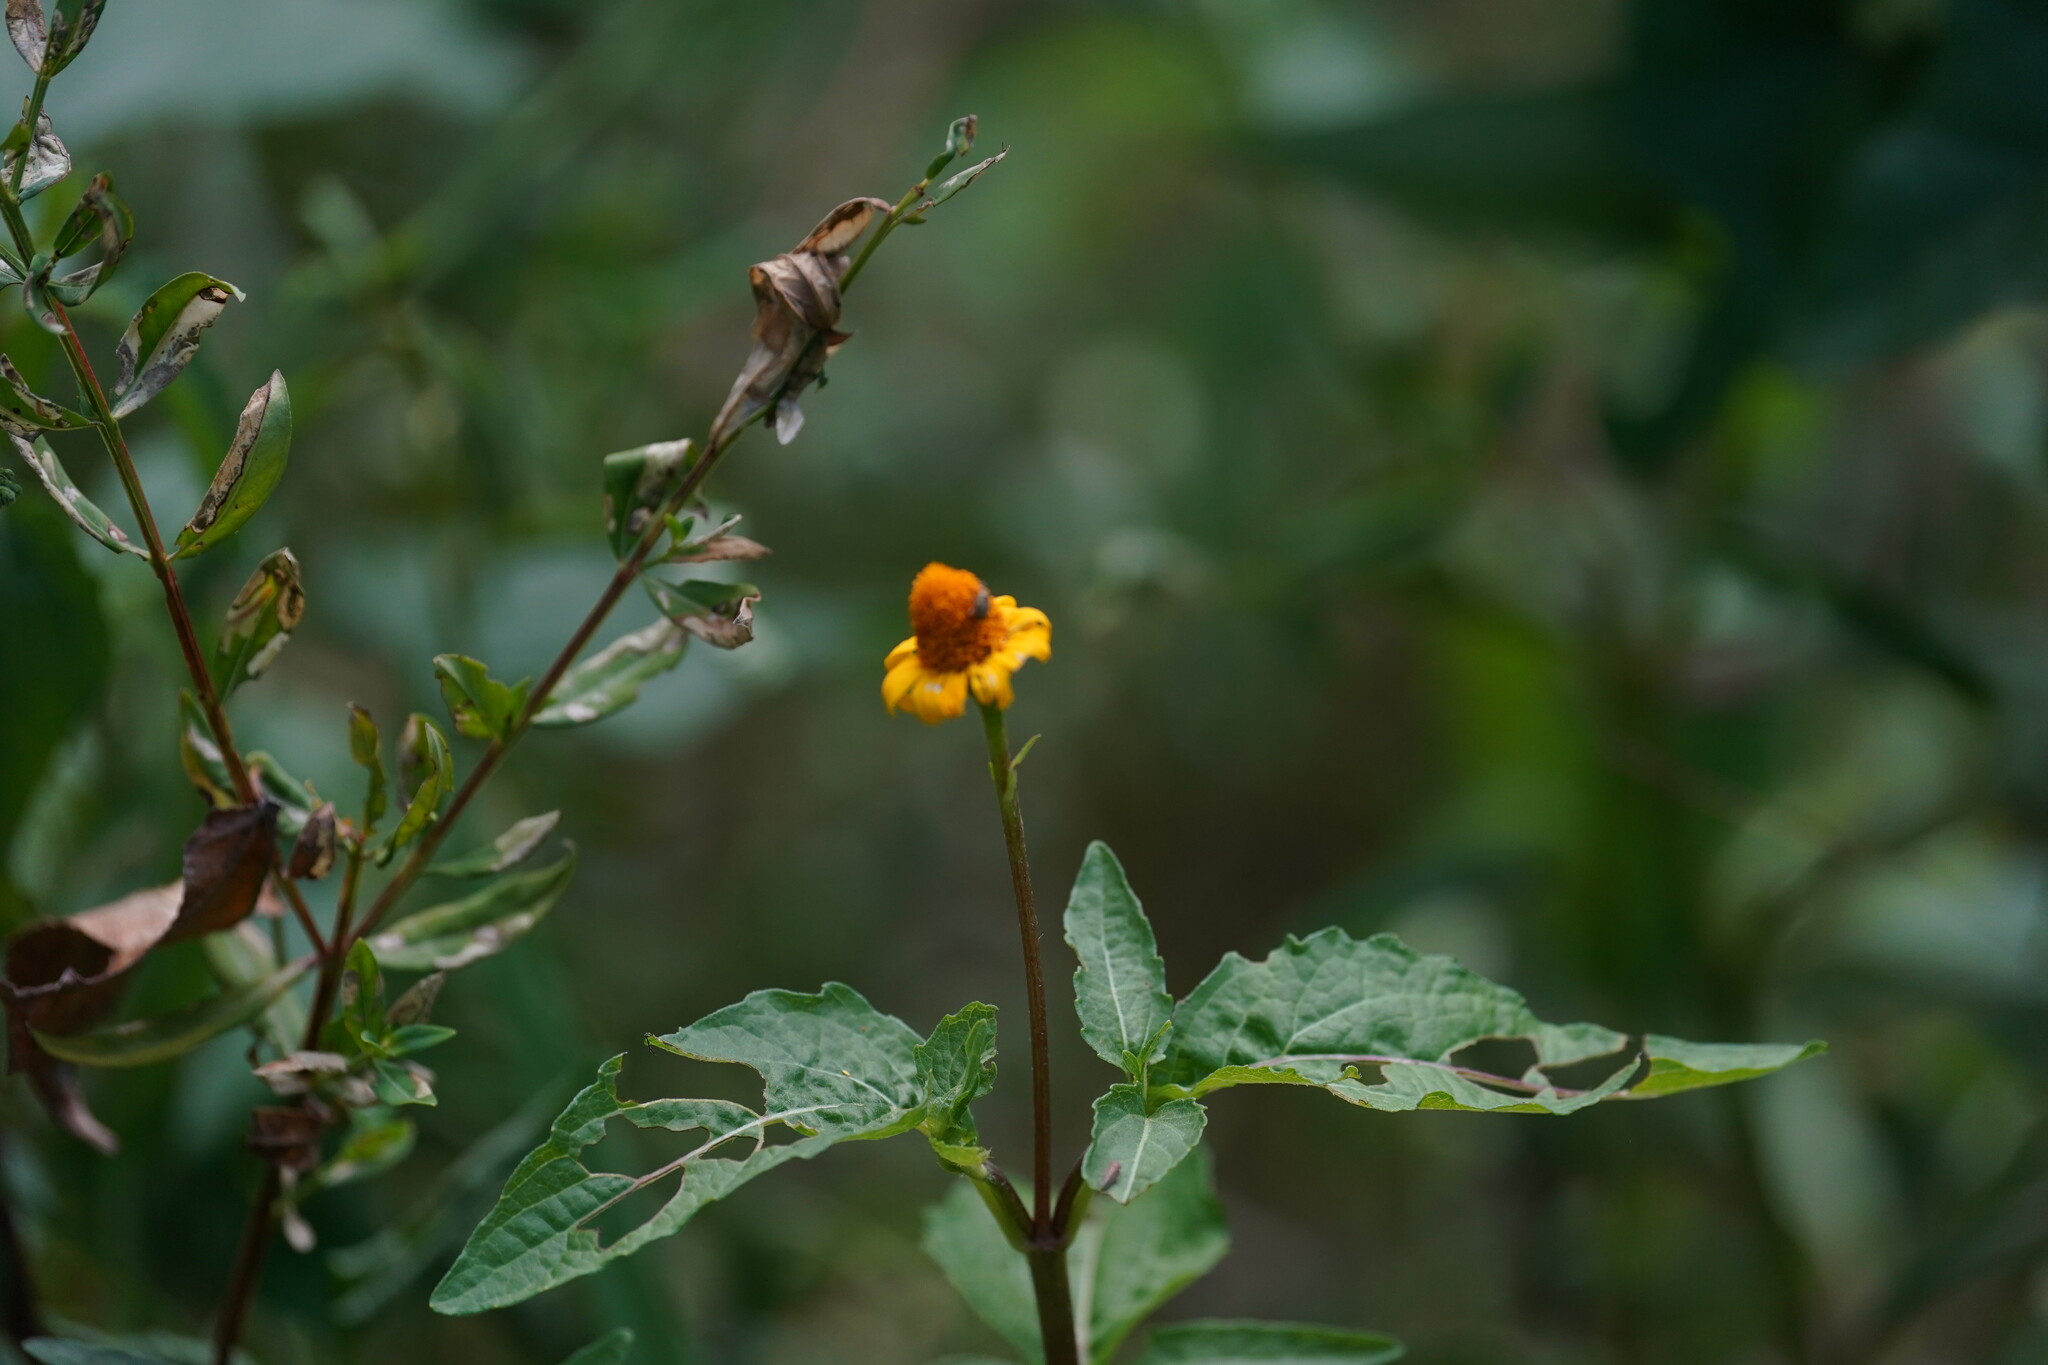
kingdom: Plantae
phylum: Tracheophyta
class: Magnoliopsida
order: Asterales
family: Asteraceae
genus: Acmella
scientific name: Acmella repens
